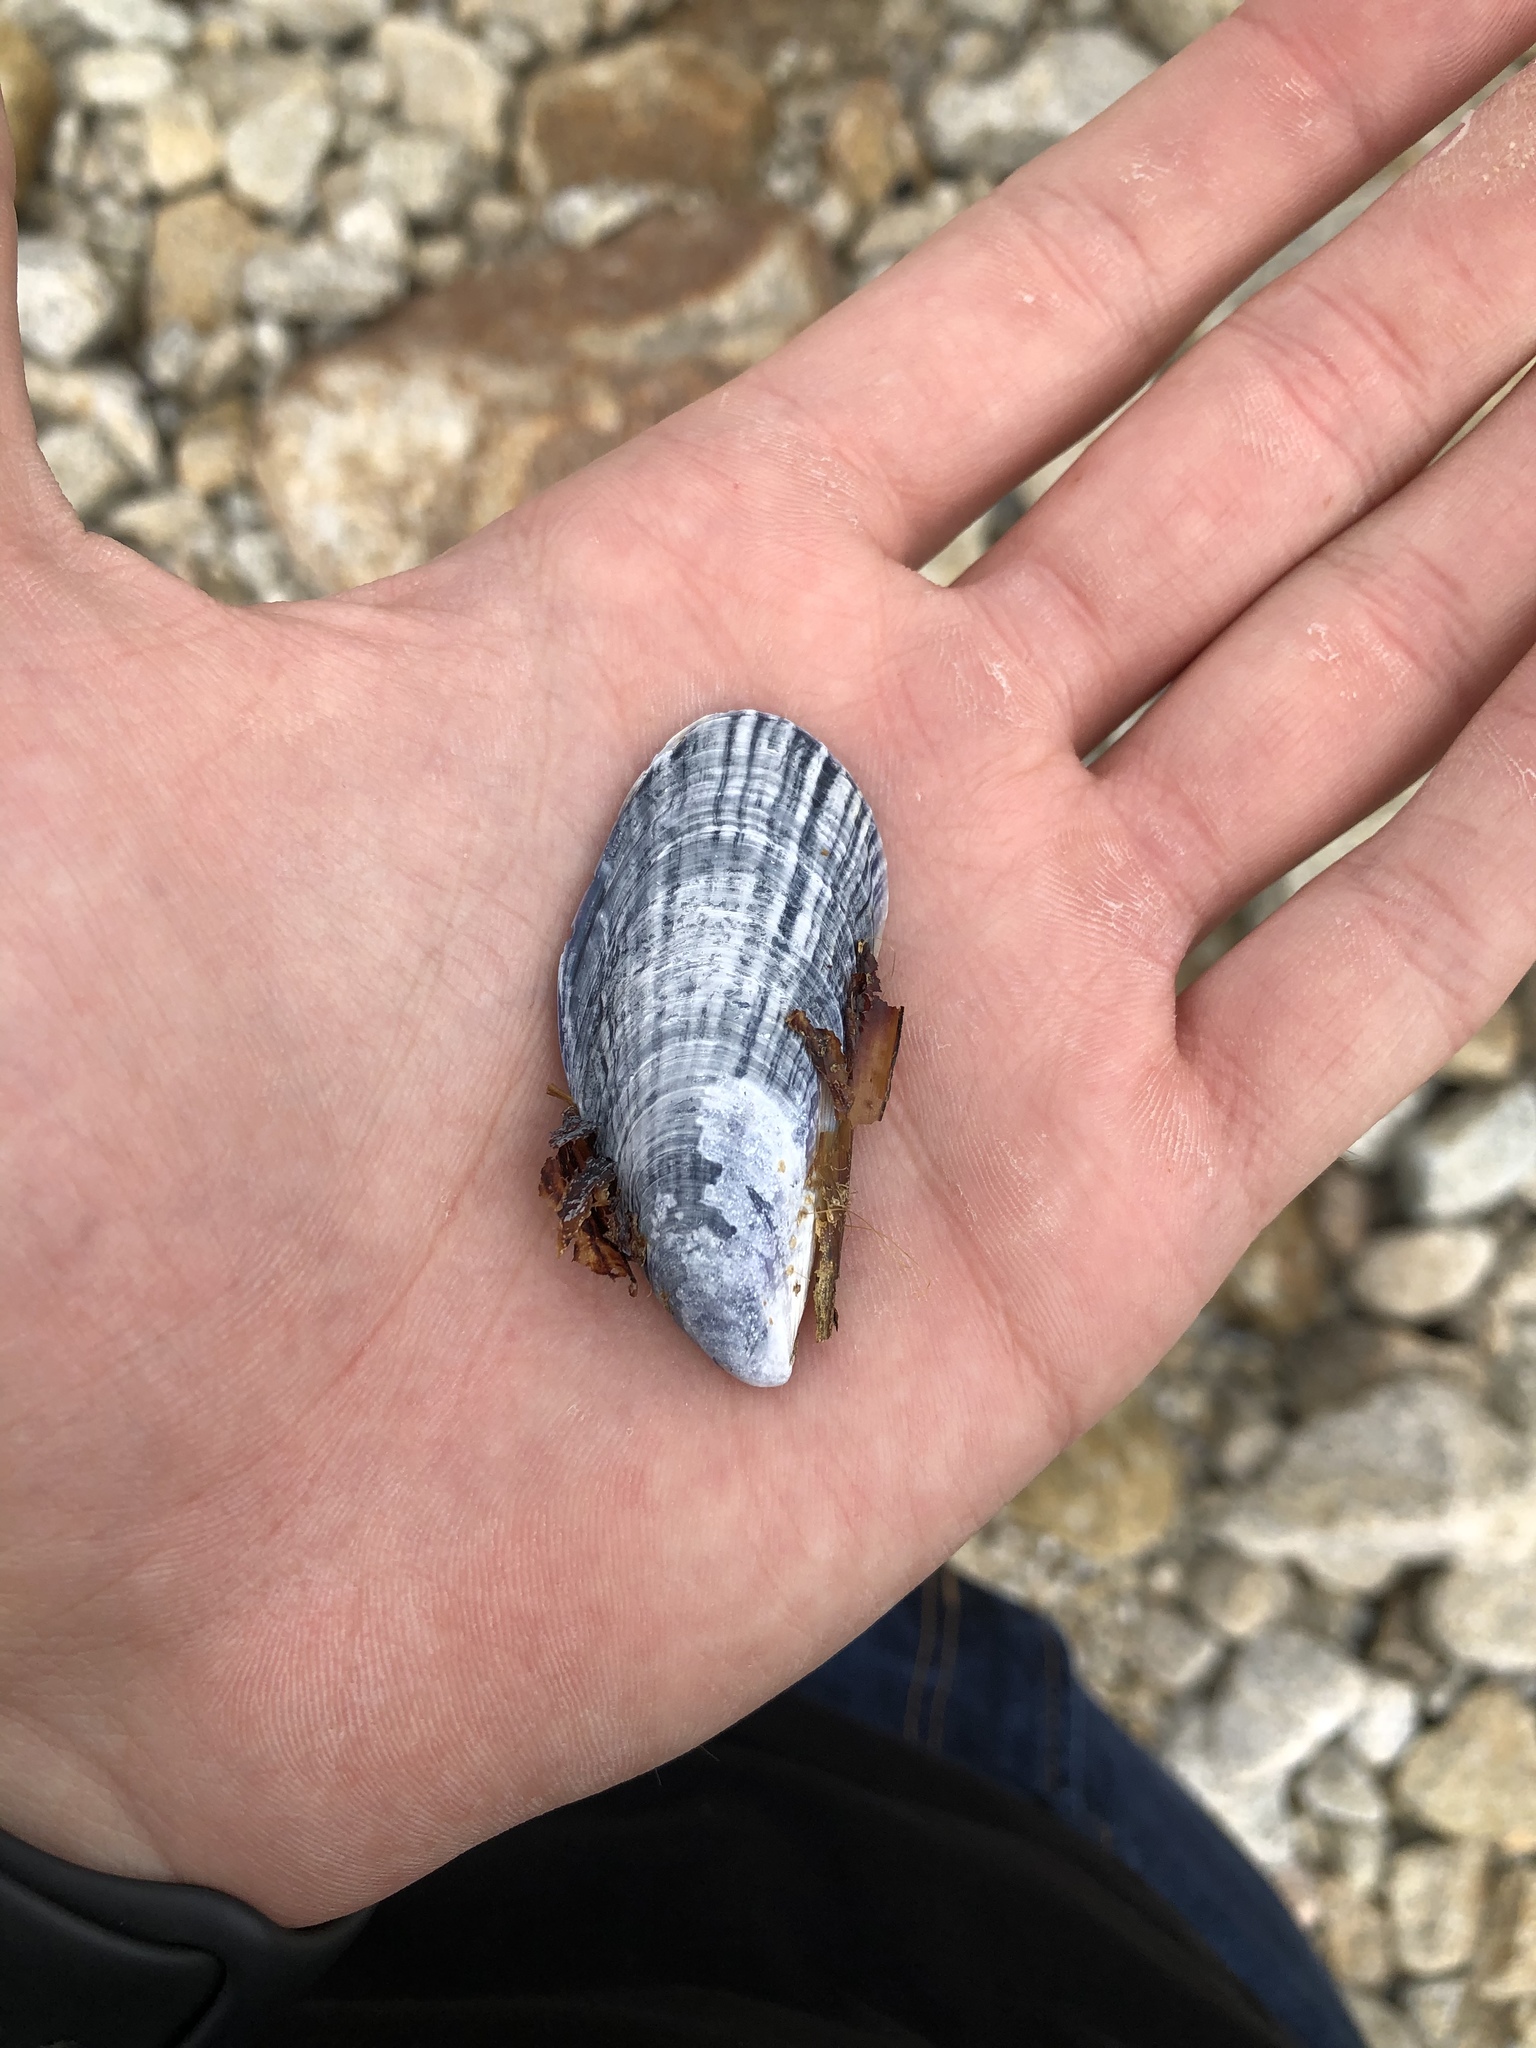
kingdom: Animalia
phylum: Mollusca
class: Bivalvia
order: Mytilida
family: Mytilidae
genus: Mytilus
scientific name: Mytilus californianus
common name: California mussel
